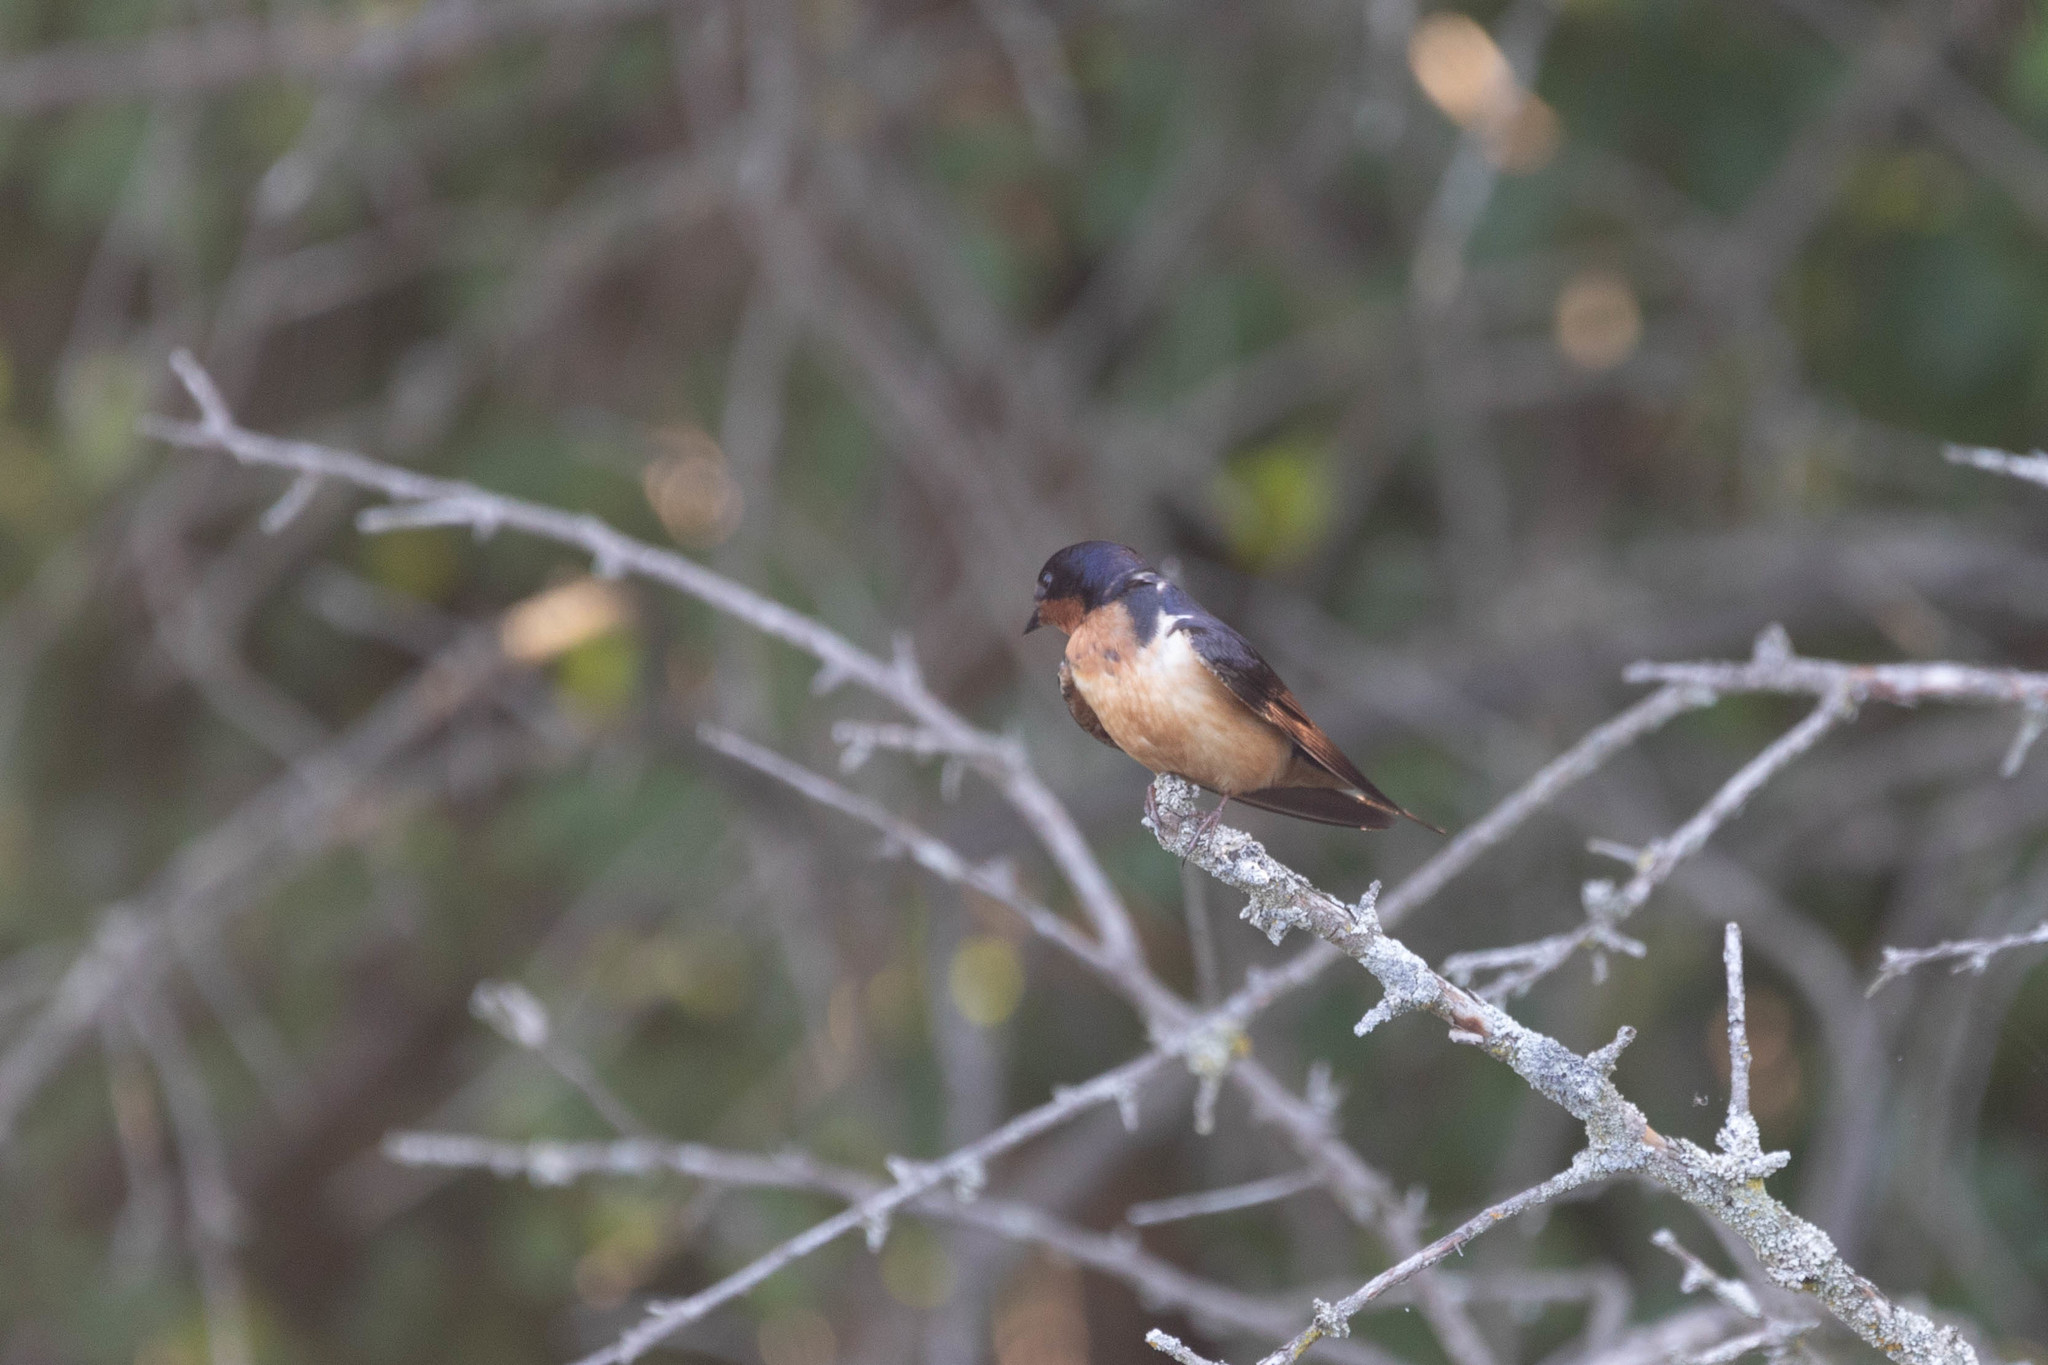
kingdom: Animalia
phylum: Chordata
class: Aves
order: Passeriformes
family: Hirundinidae
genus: Hirundo
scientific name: Hirundo rustica
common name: Barn swallow
